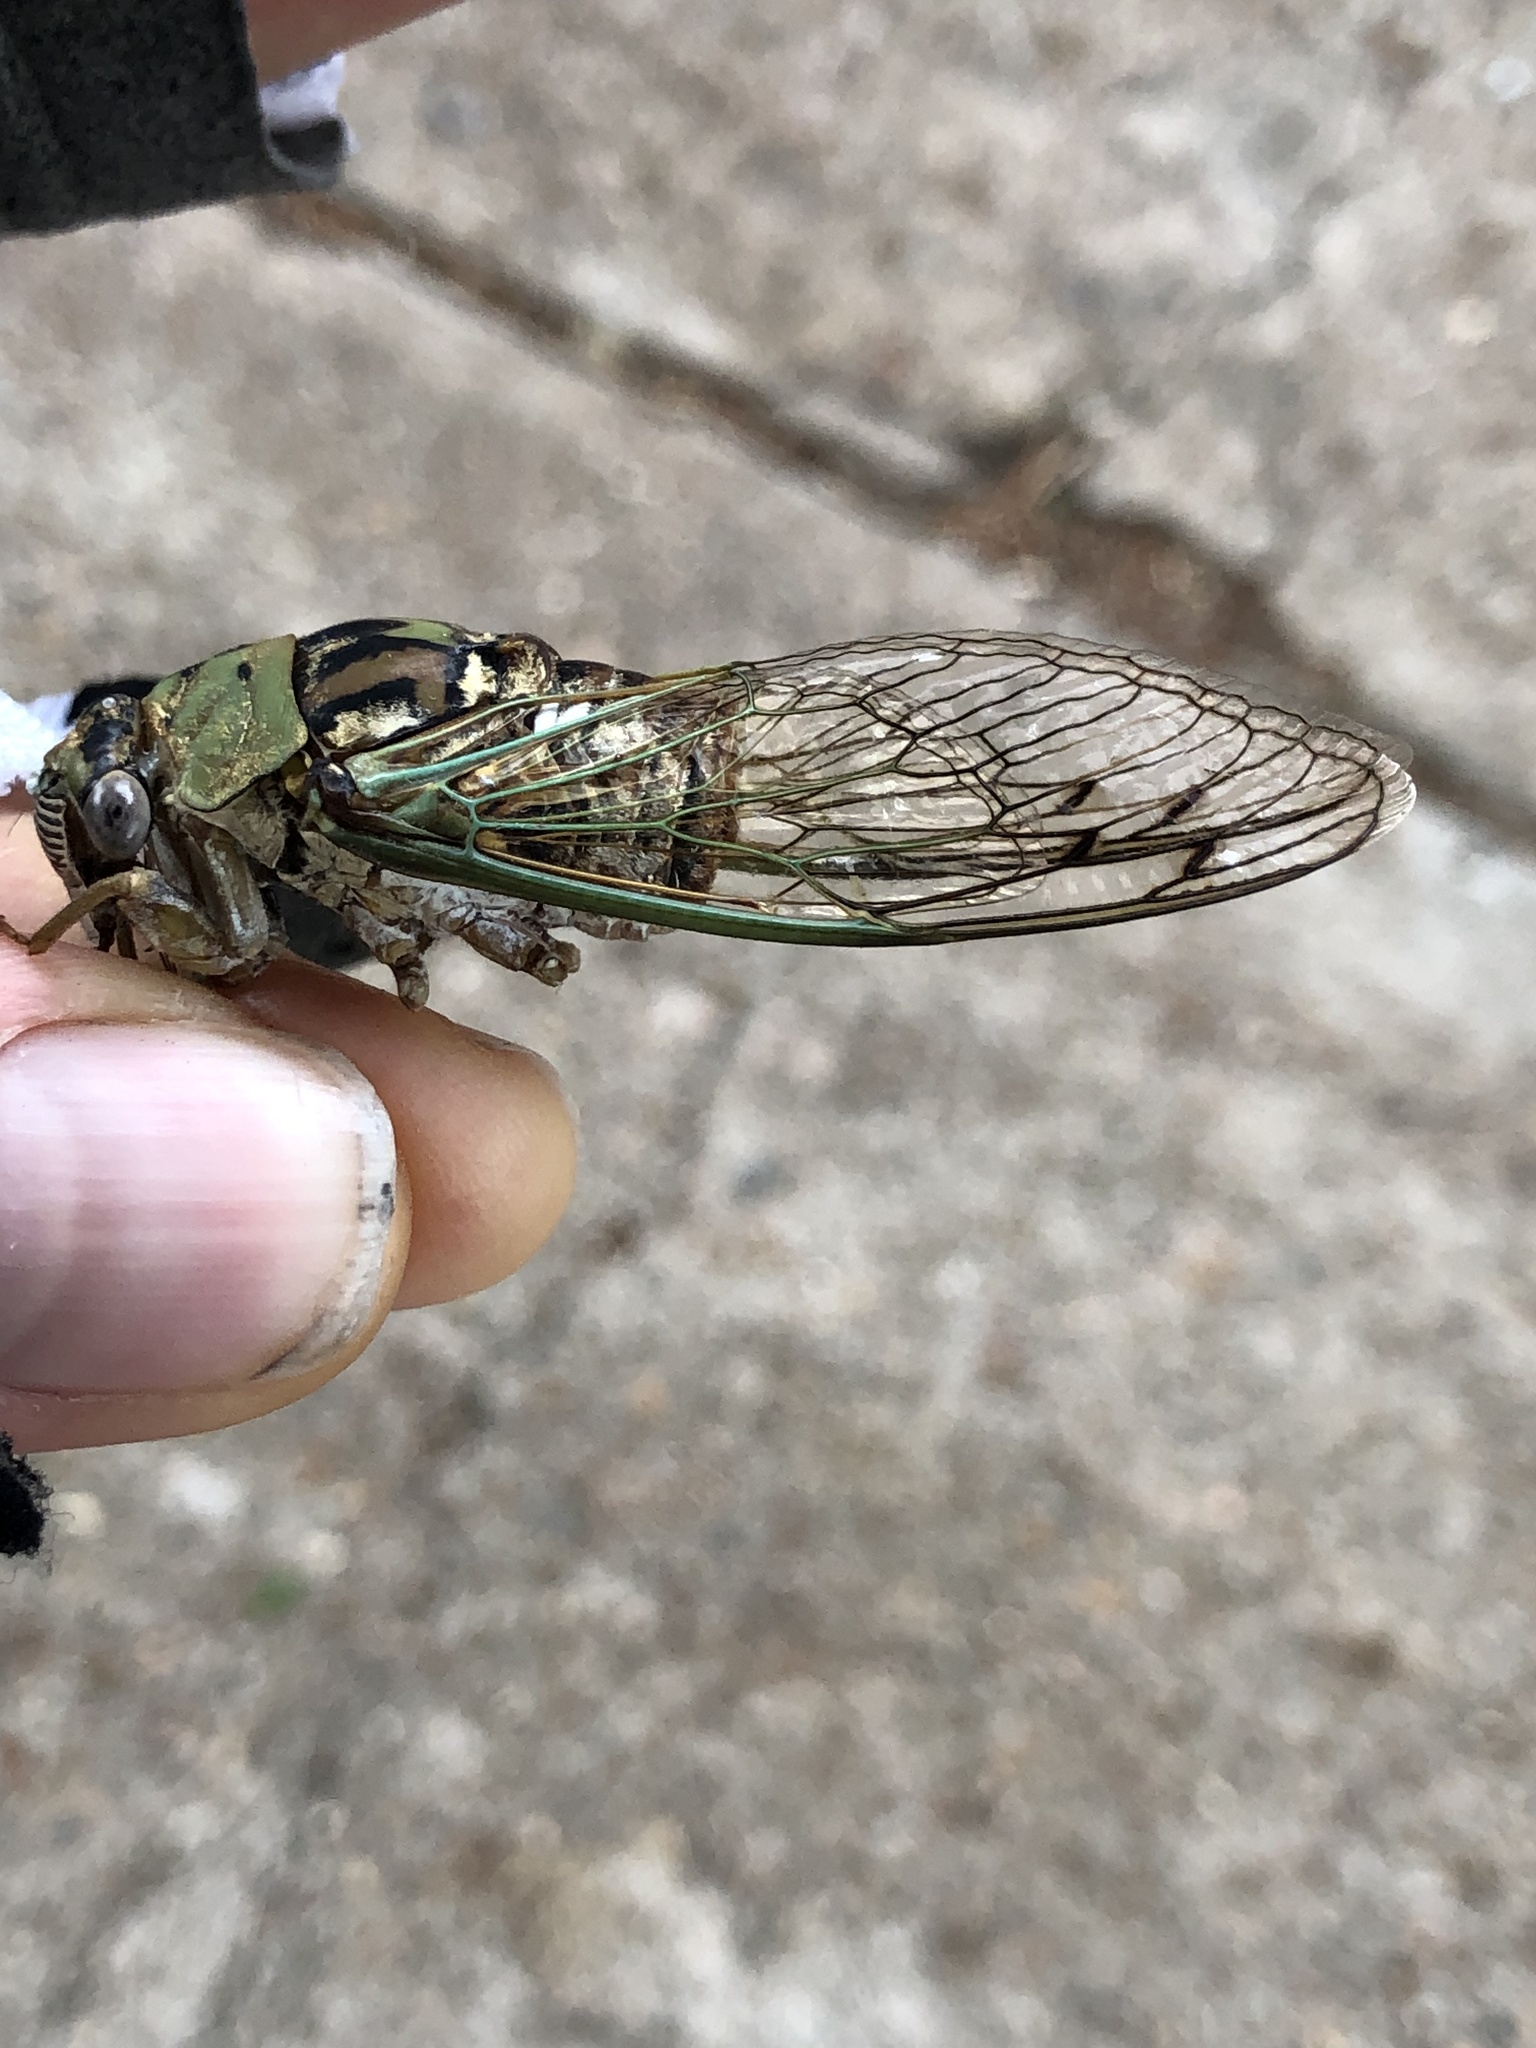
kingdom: Animalia
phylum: Arthropoda
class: Insecta
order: Hemiptera
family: Cicadidae
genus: Megatibicen
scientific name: Megatibicen resh
